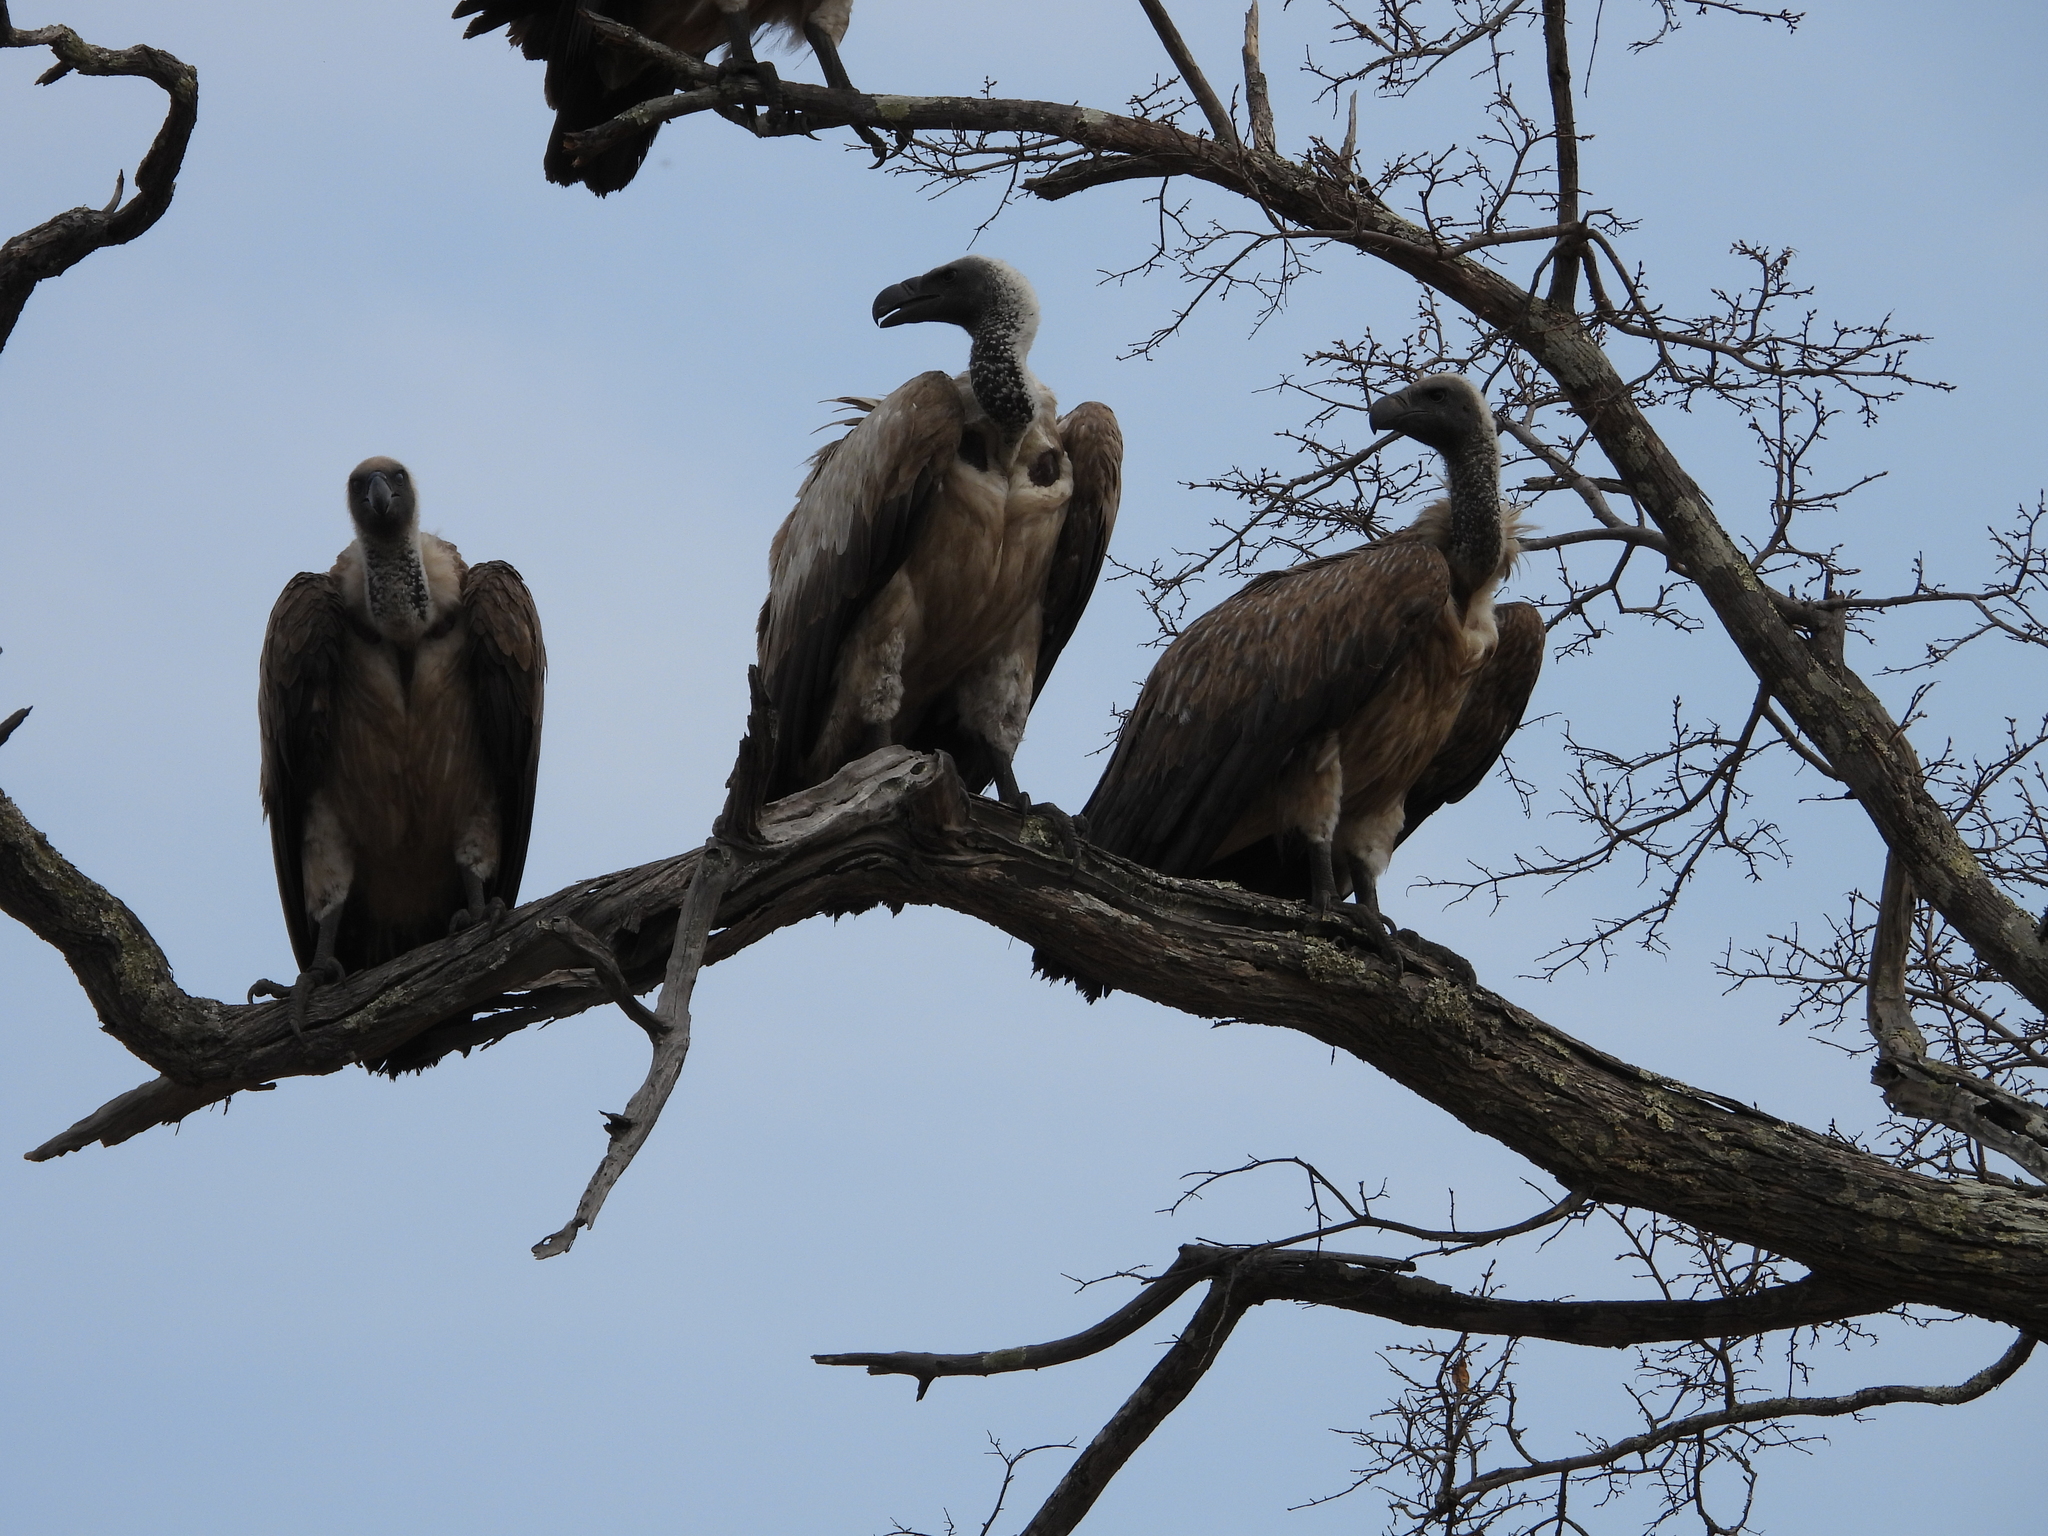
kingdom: Animalia
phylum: Chordata
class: Aves
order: Accipitriformes
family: Accipitridae
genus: Gyps
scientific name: Gyps africanus
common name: White-backed vulture
